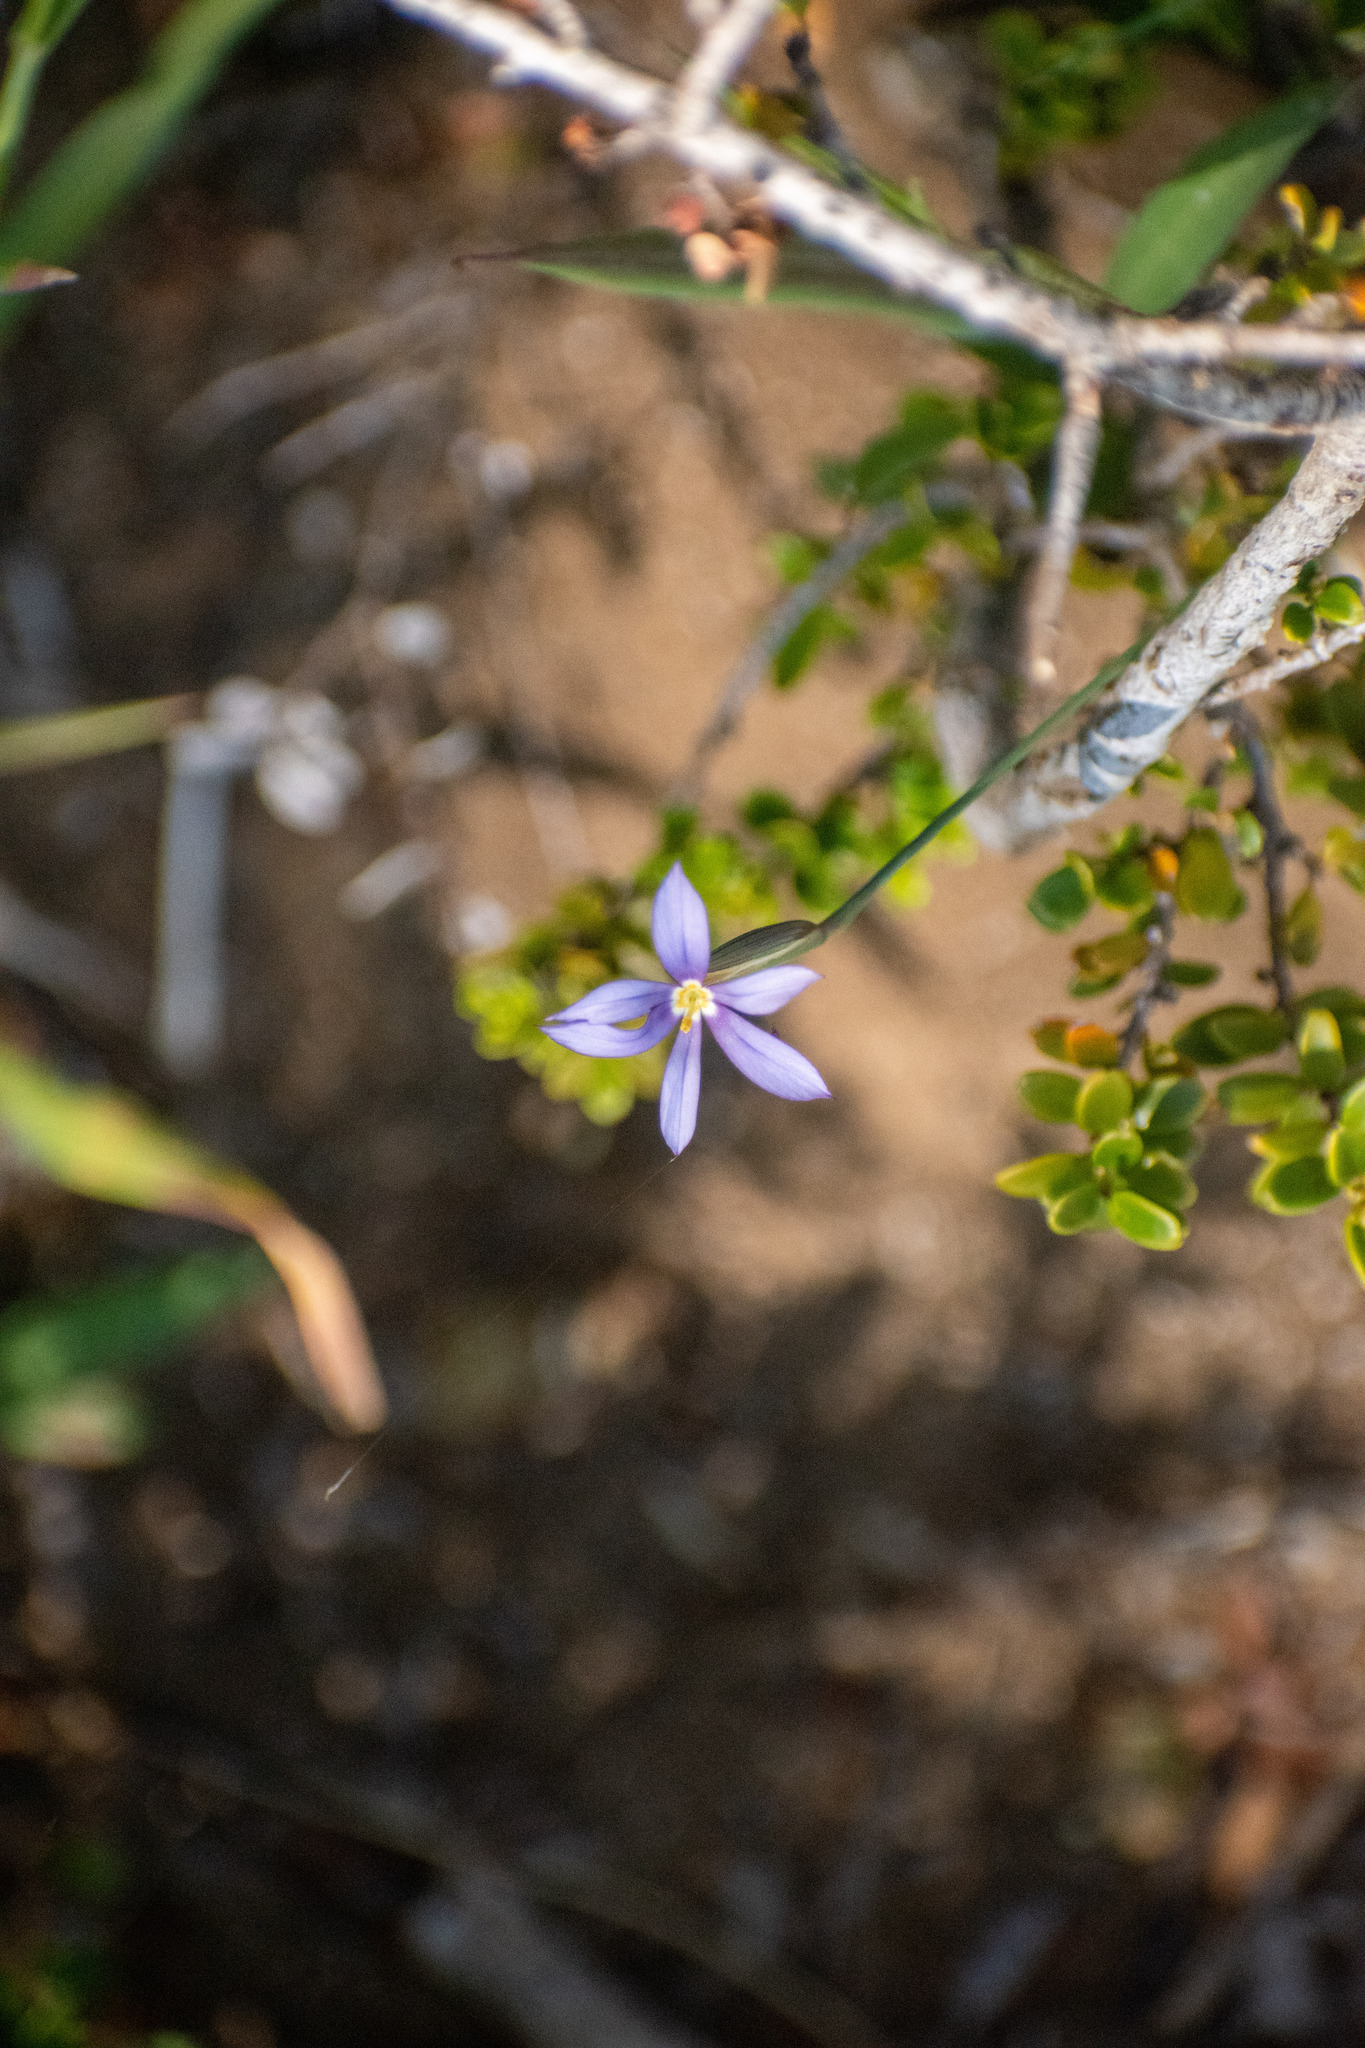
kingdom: Plantae
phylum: Tracheophyta
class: Liliopsida
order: Asparagales
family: Iridaceae
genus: Solenomelus
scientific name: Solenomelus segethi
